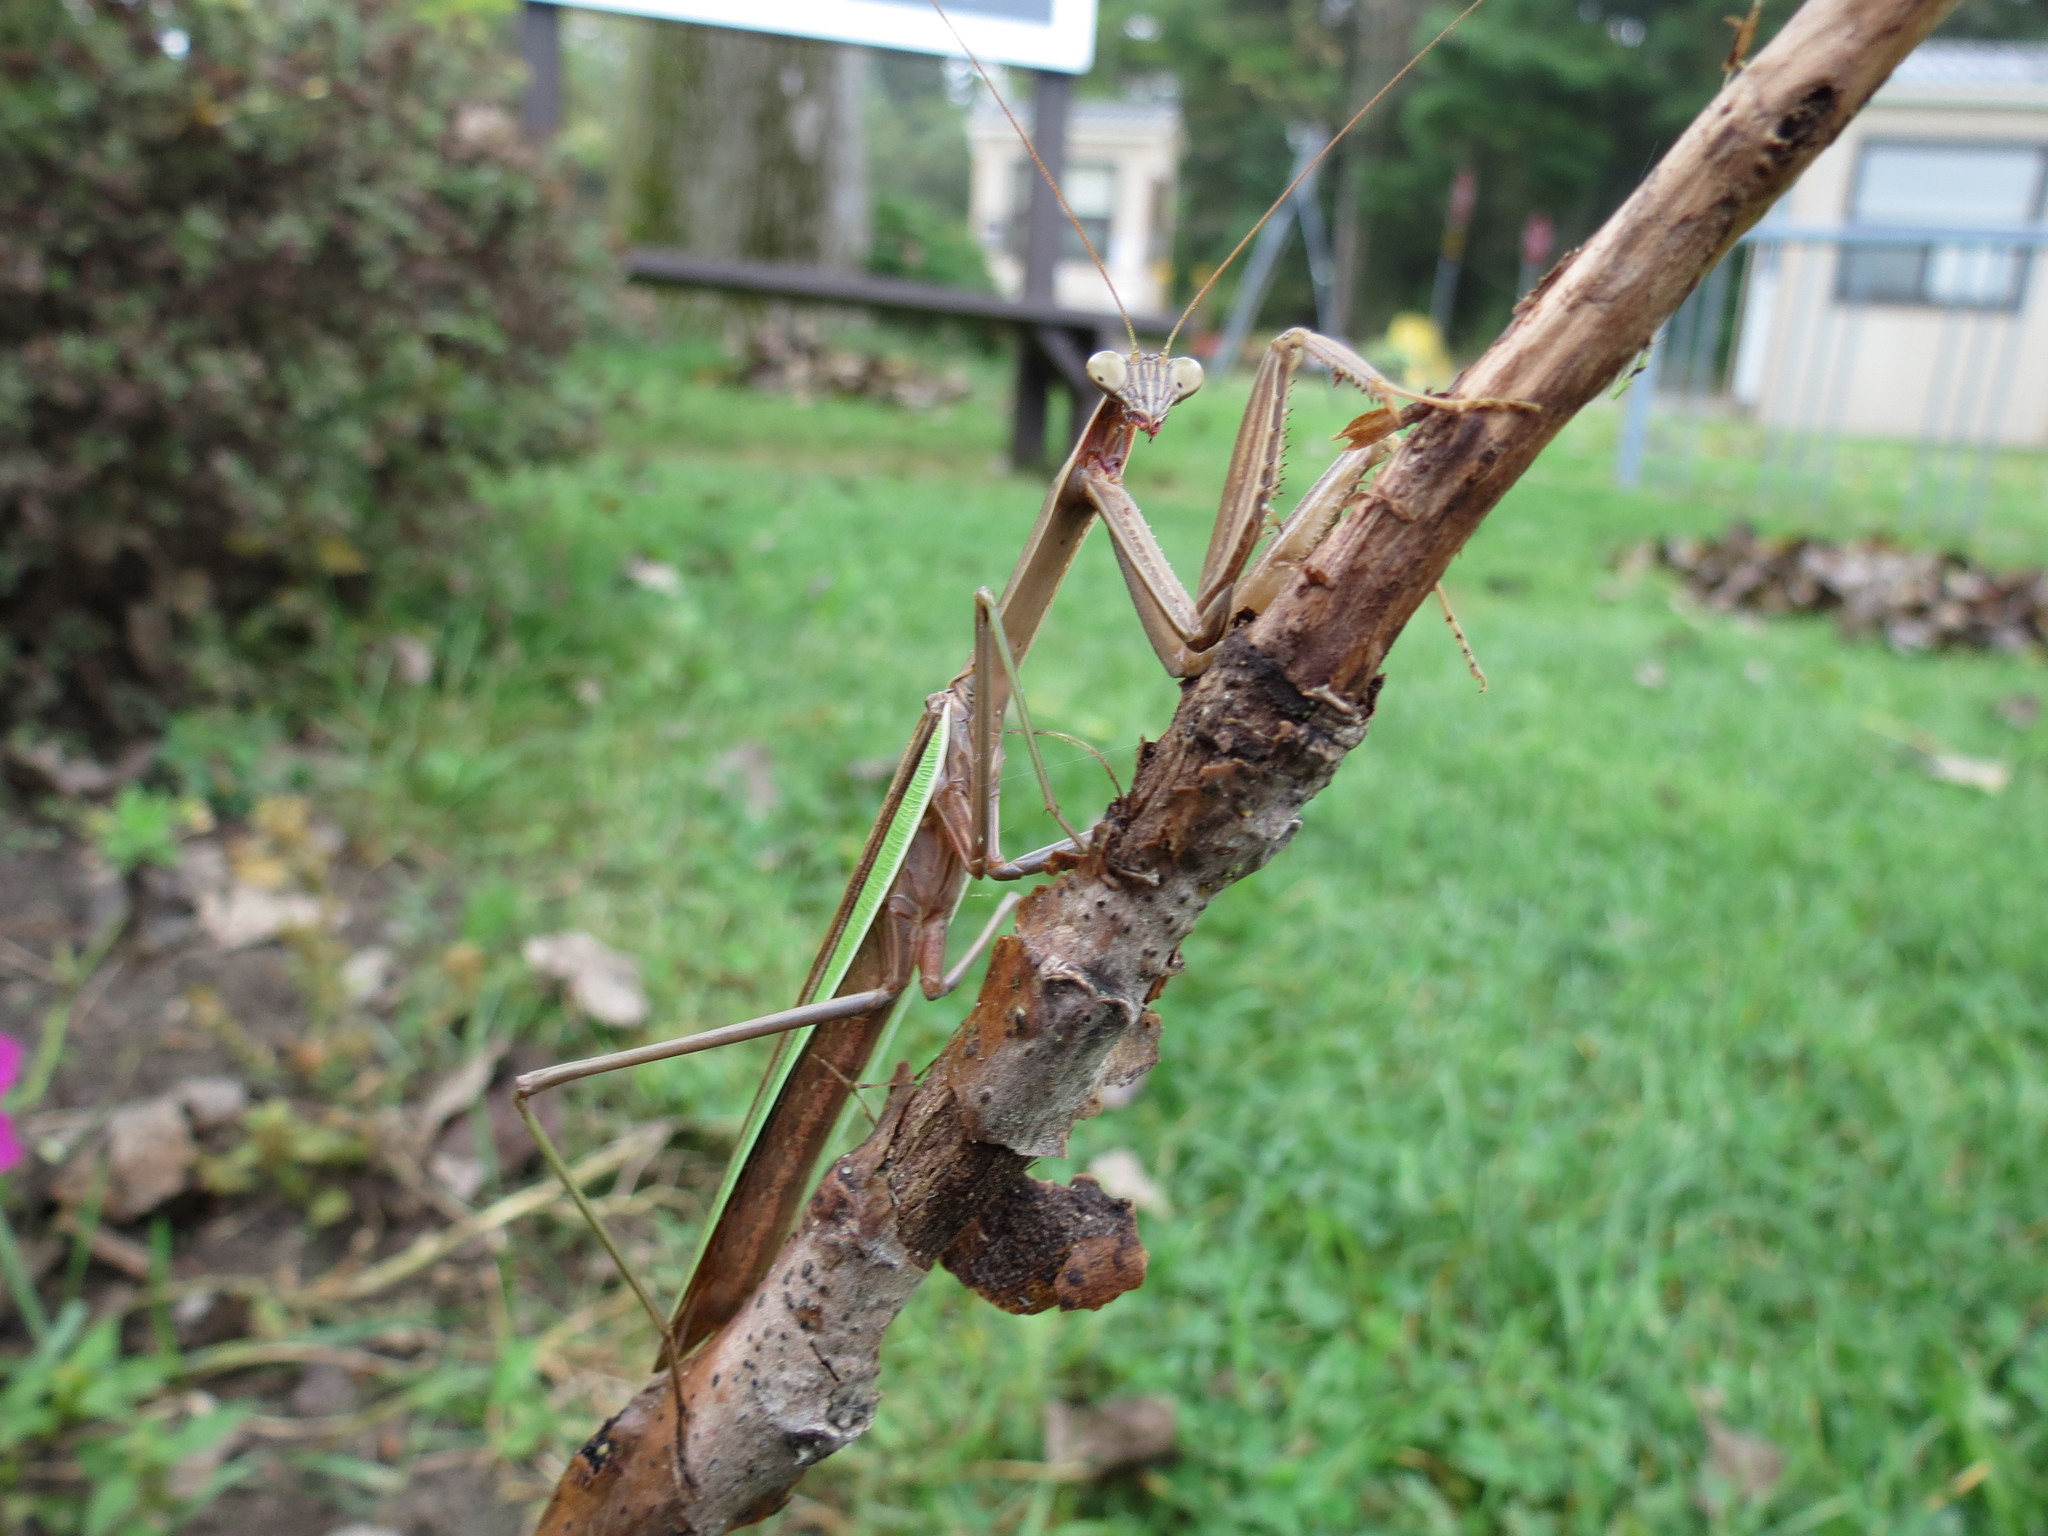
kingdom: Animalia
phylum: Arthropoda
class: Insecta
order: Mantodea
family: Mantidae
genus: Tenodera
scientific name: Tenodera sinensis
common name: Chinese mantis
